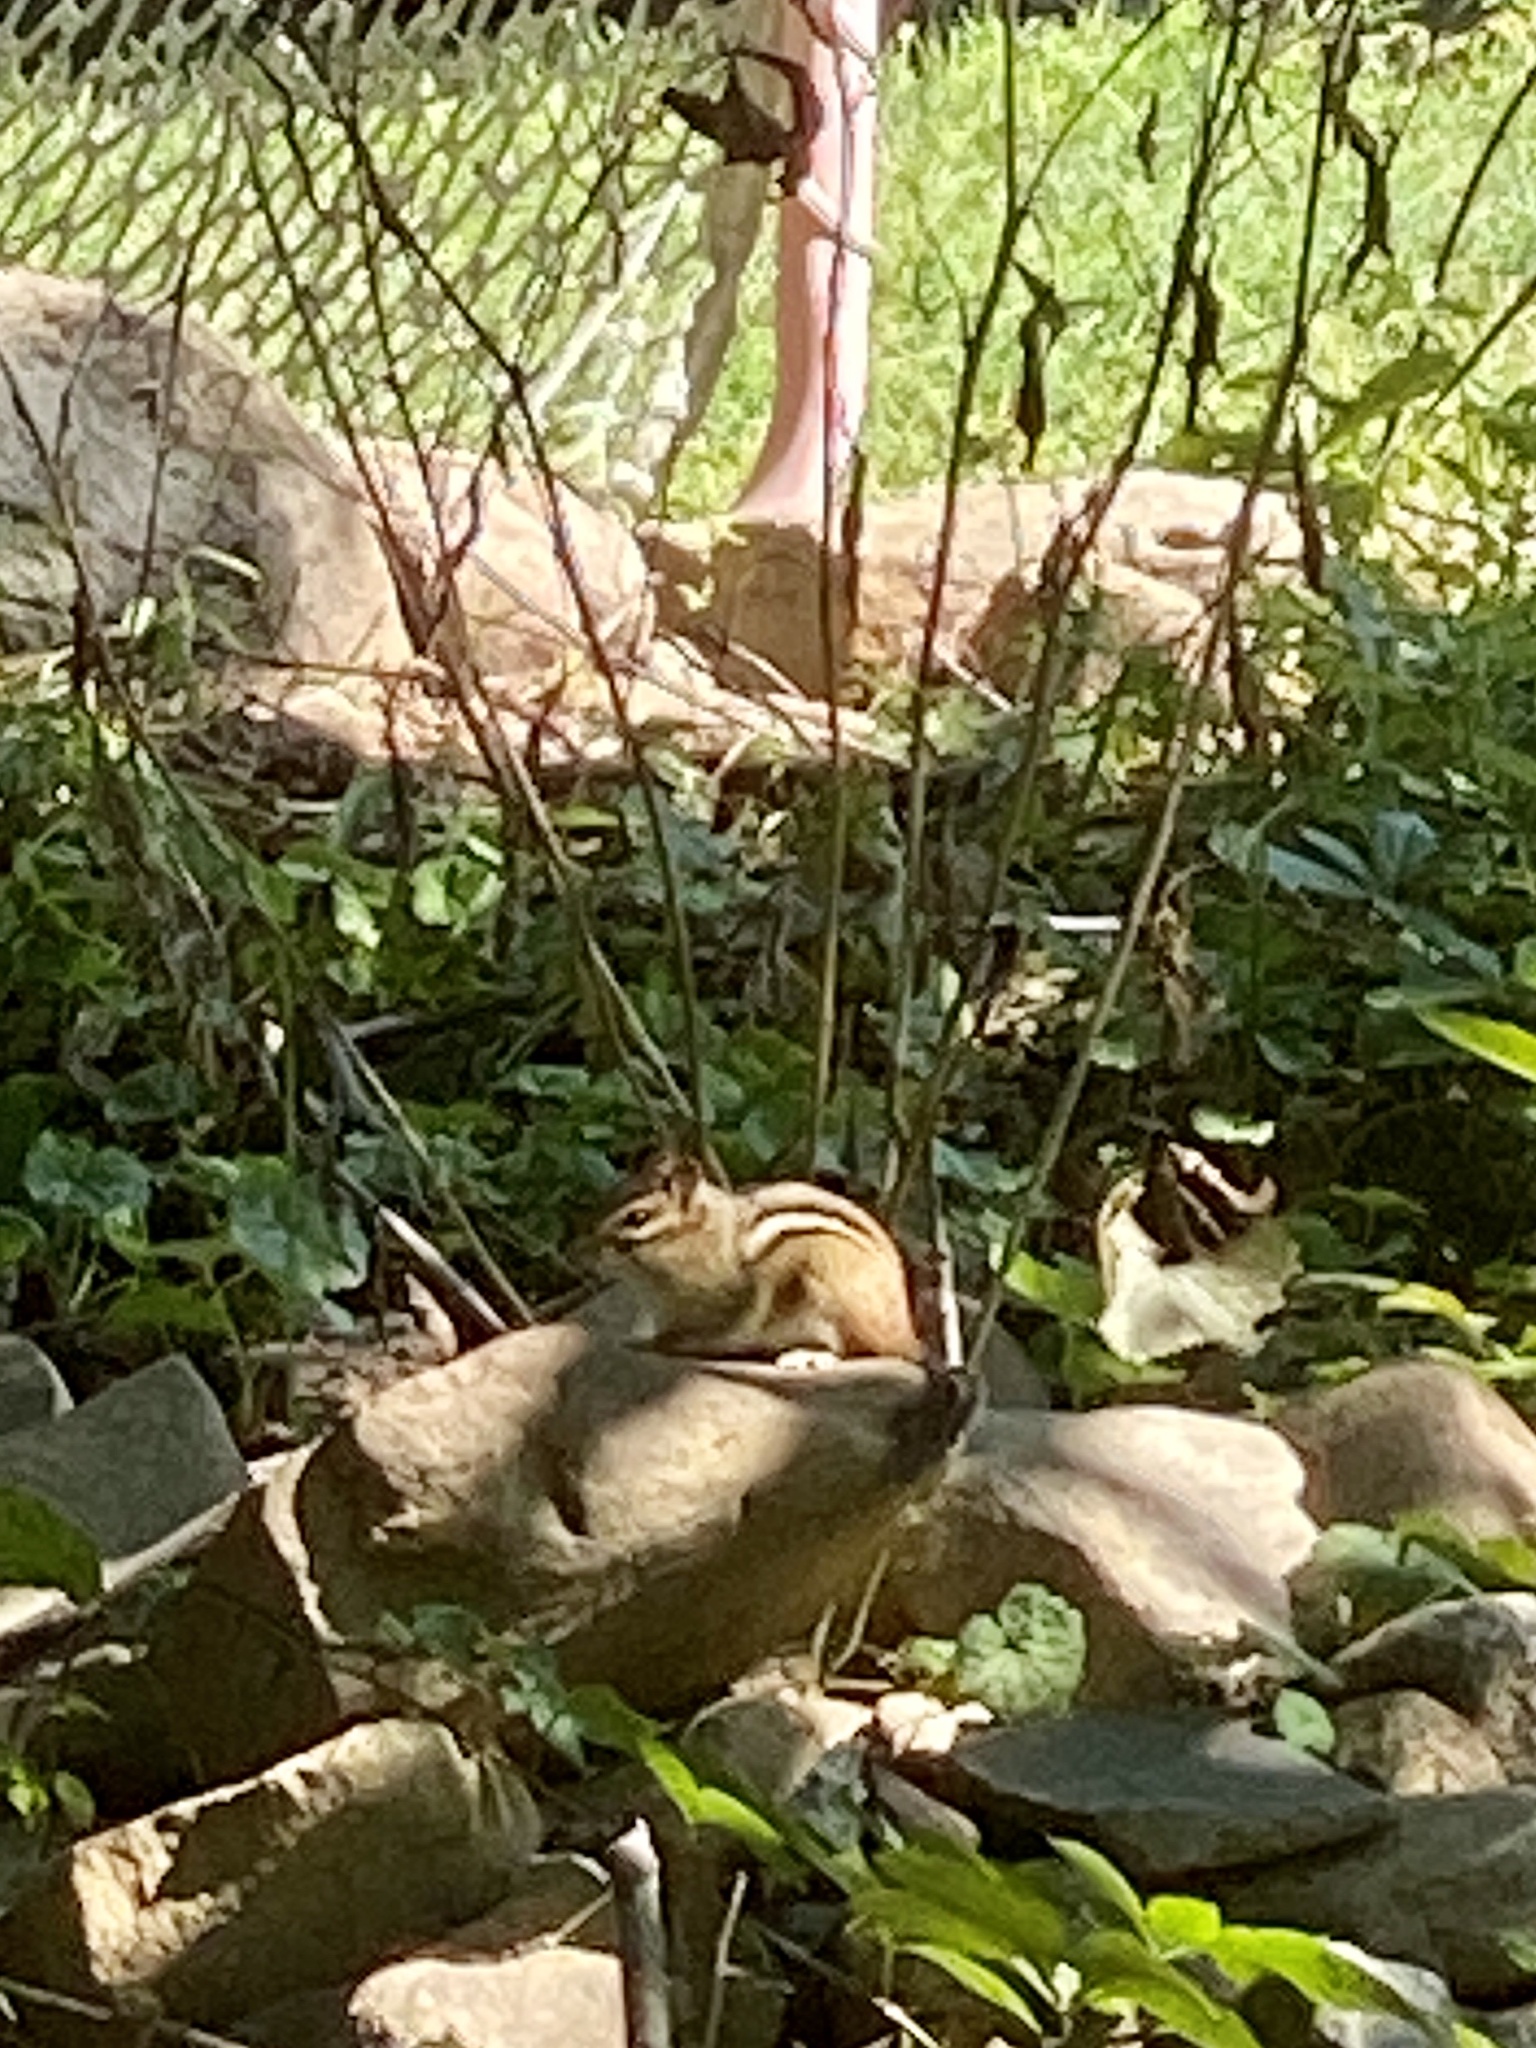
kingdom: Animalia
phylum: Chordata
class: Mammalia
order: Rodentia
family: Sciuridae
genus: Tamias
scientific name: Tamias striatus
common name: Eastern chipmunk
